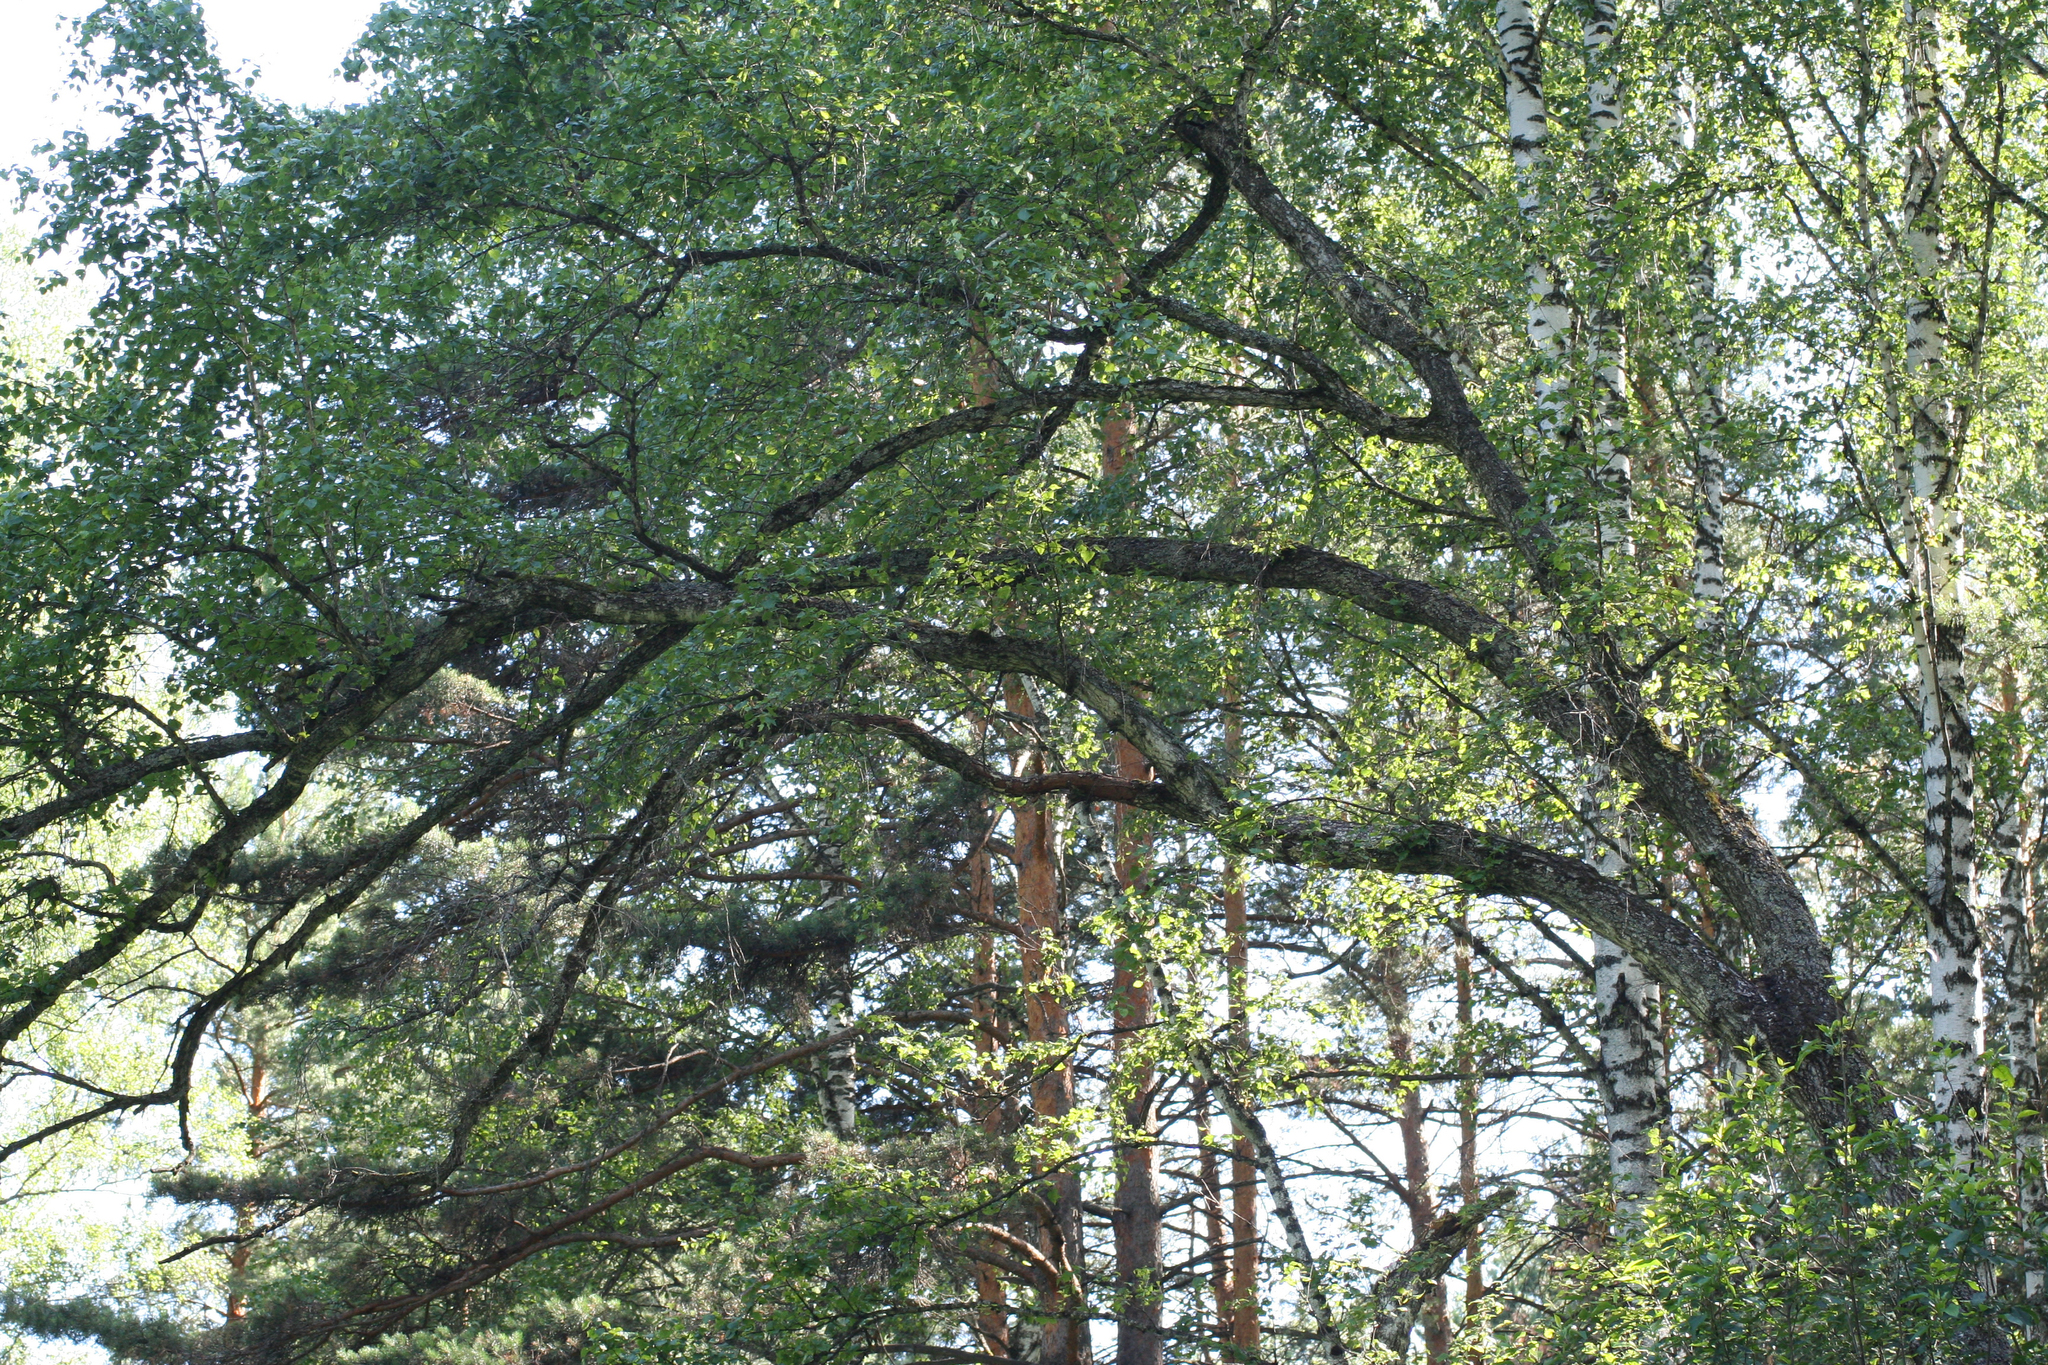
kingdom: Plantae
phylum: Tracheophyta
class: Magnoliopsida
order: Fagales
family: Betulaceae
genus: Betula
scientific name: Betula pendula
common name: Silver birch
